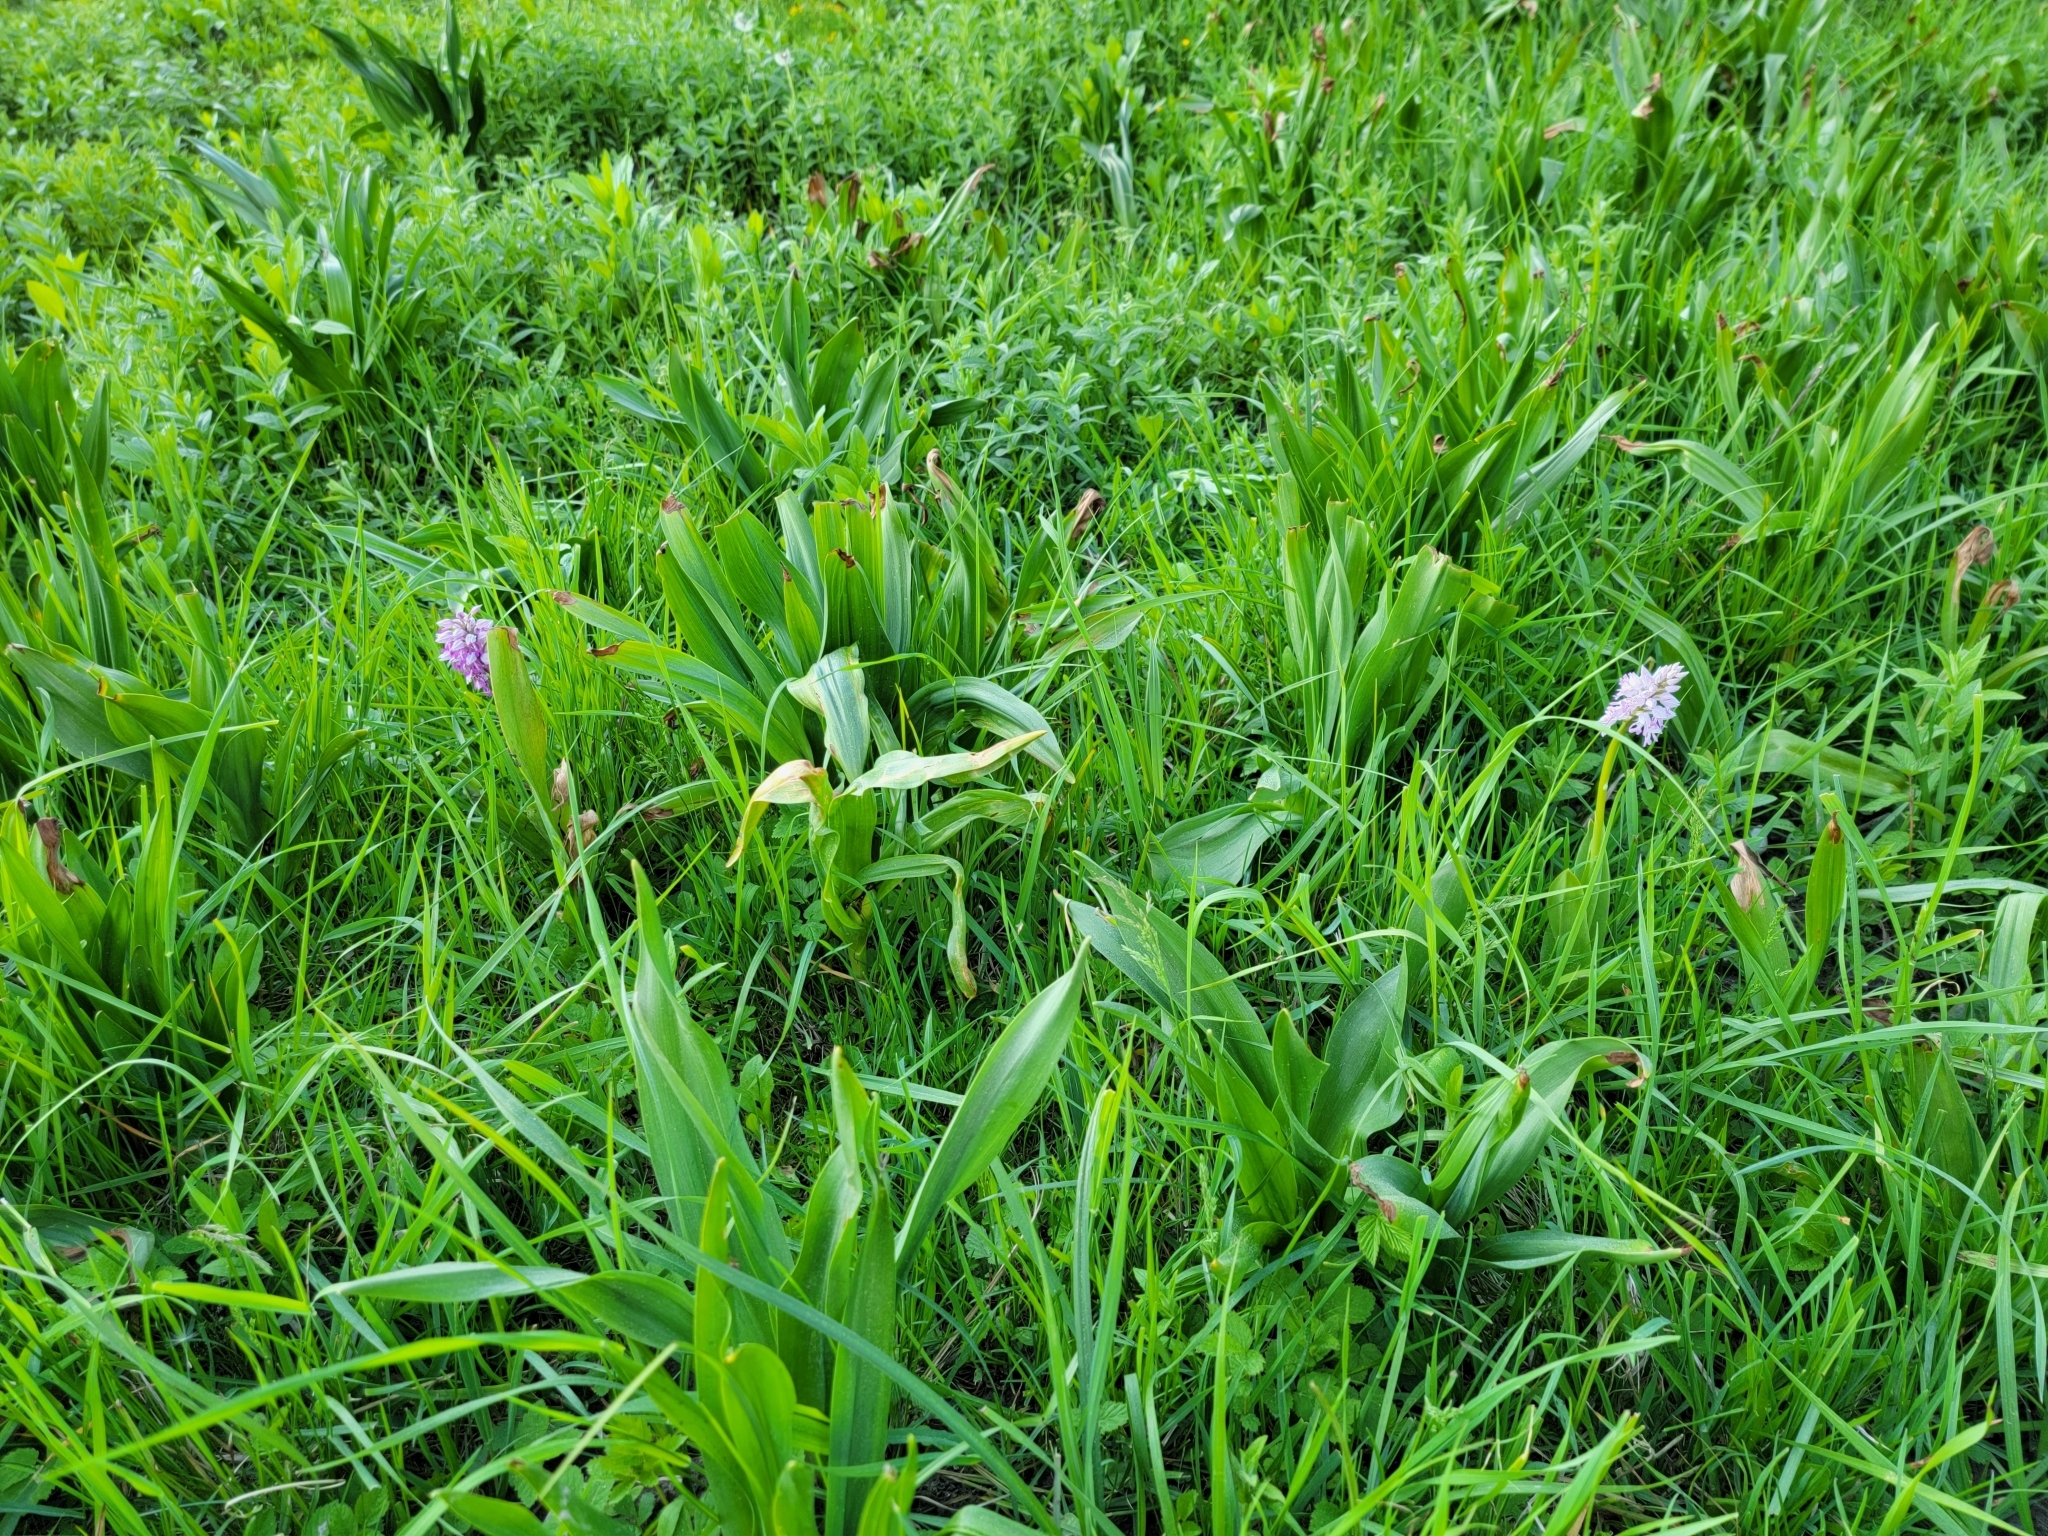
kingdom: Plantae
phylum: Tracheophyta
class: Liliopsida
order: Asparagales
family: Orchidaceae
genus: Orchis
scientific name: Orchis militaris
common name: Military orchid
